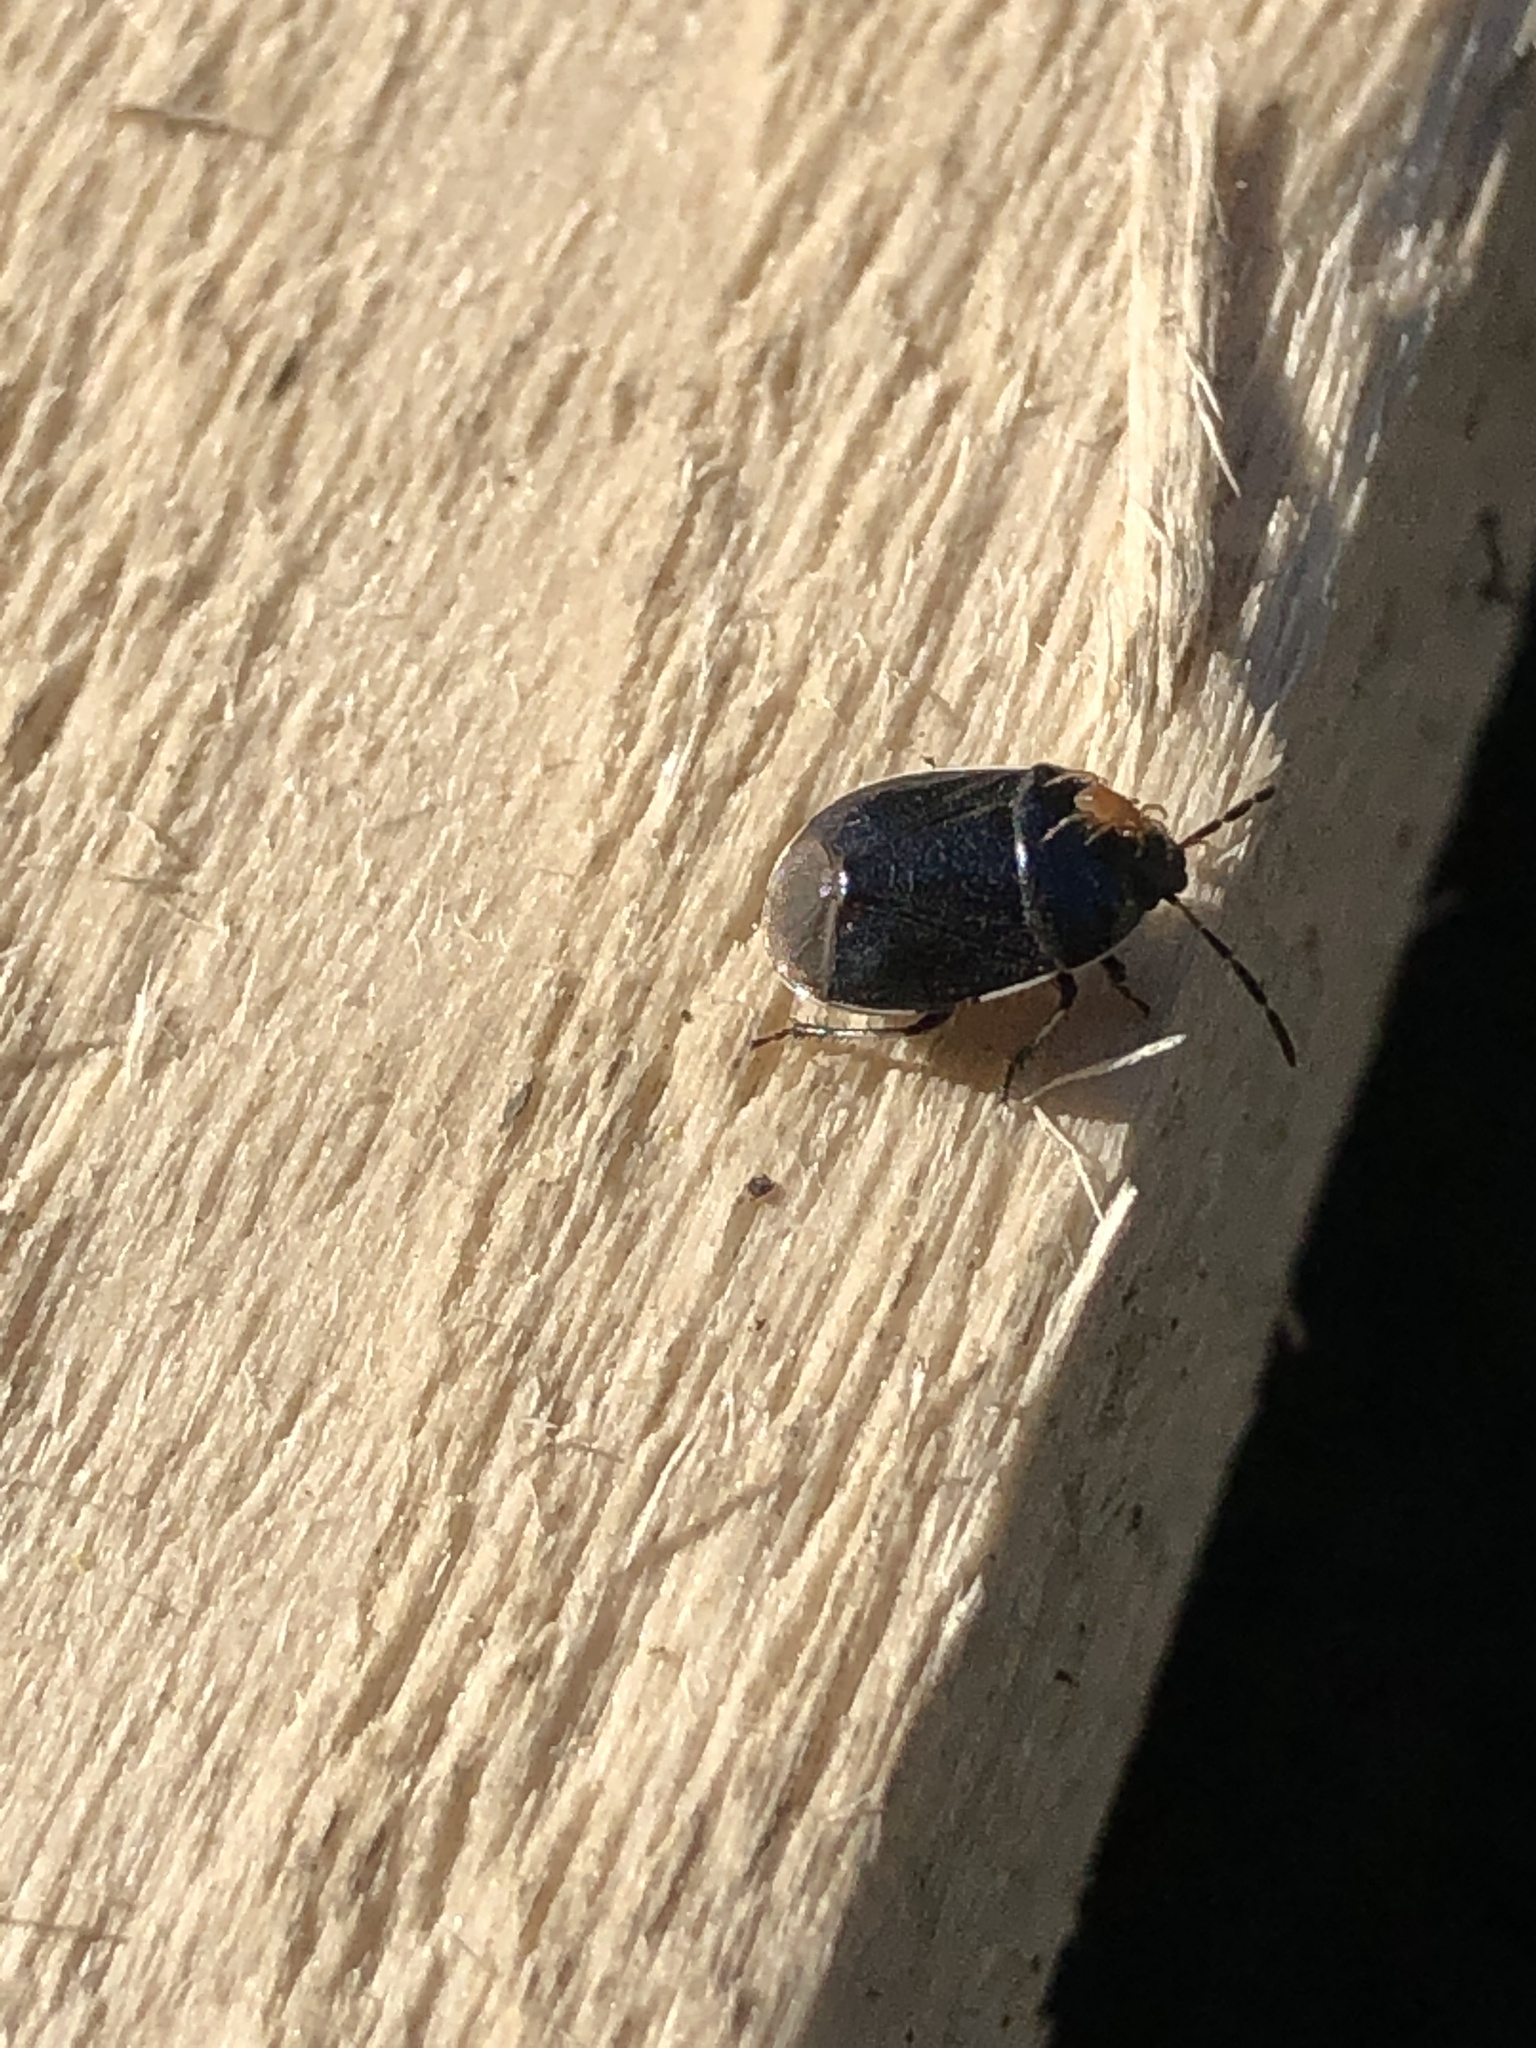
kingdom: Animalia
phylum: Arthropoda
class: Insecta
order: Hemiptera
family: Cydnidae
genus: Sehirus
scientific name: Sehirus cinctus
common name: White-margined burrower bug
